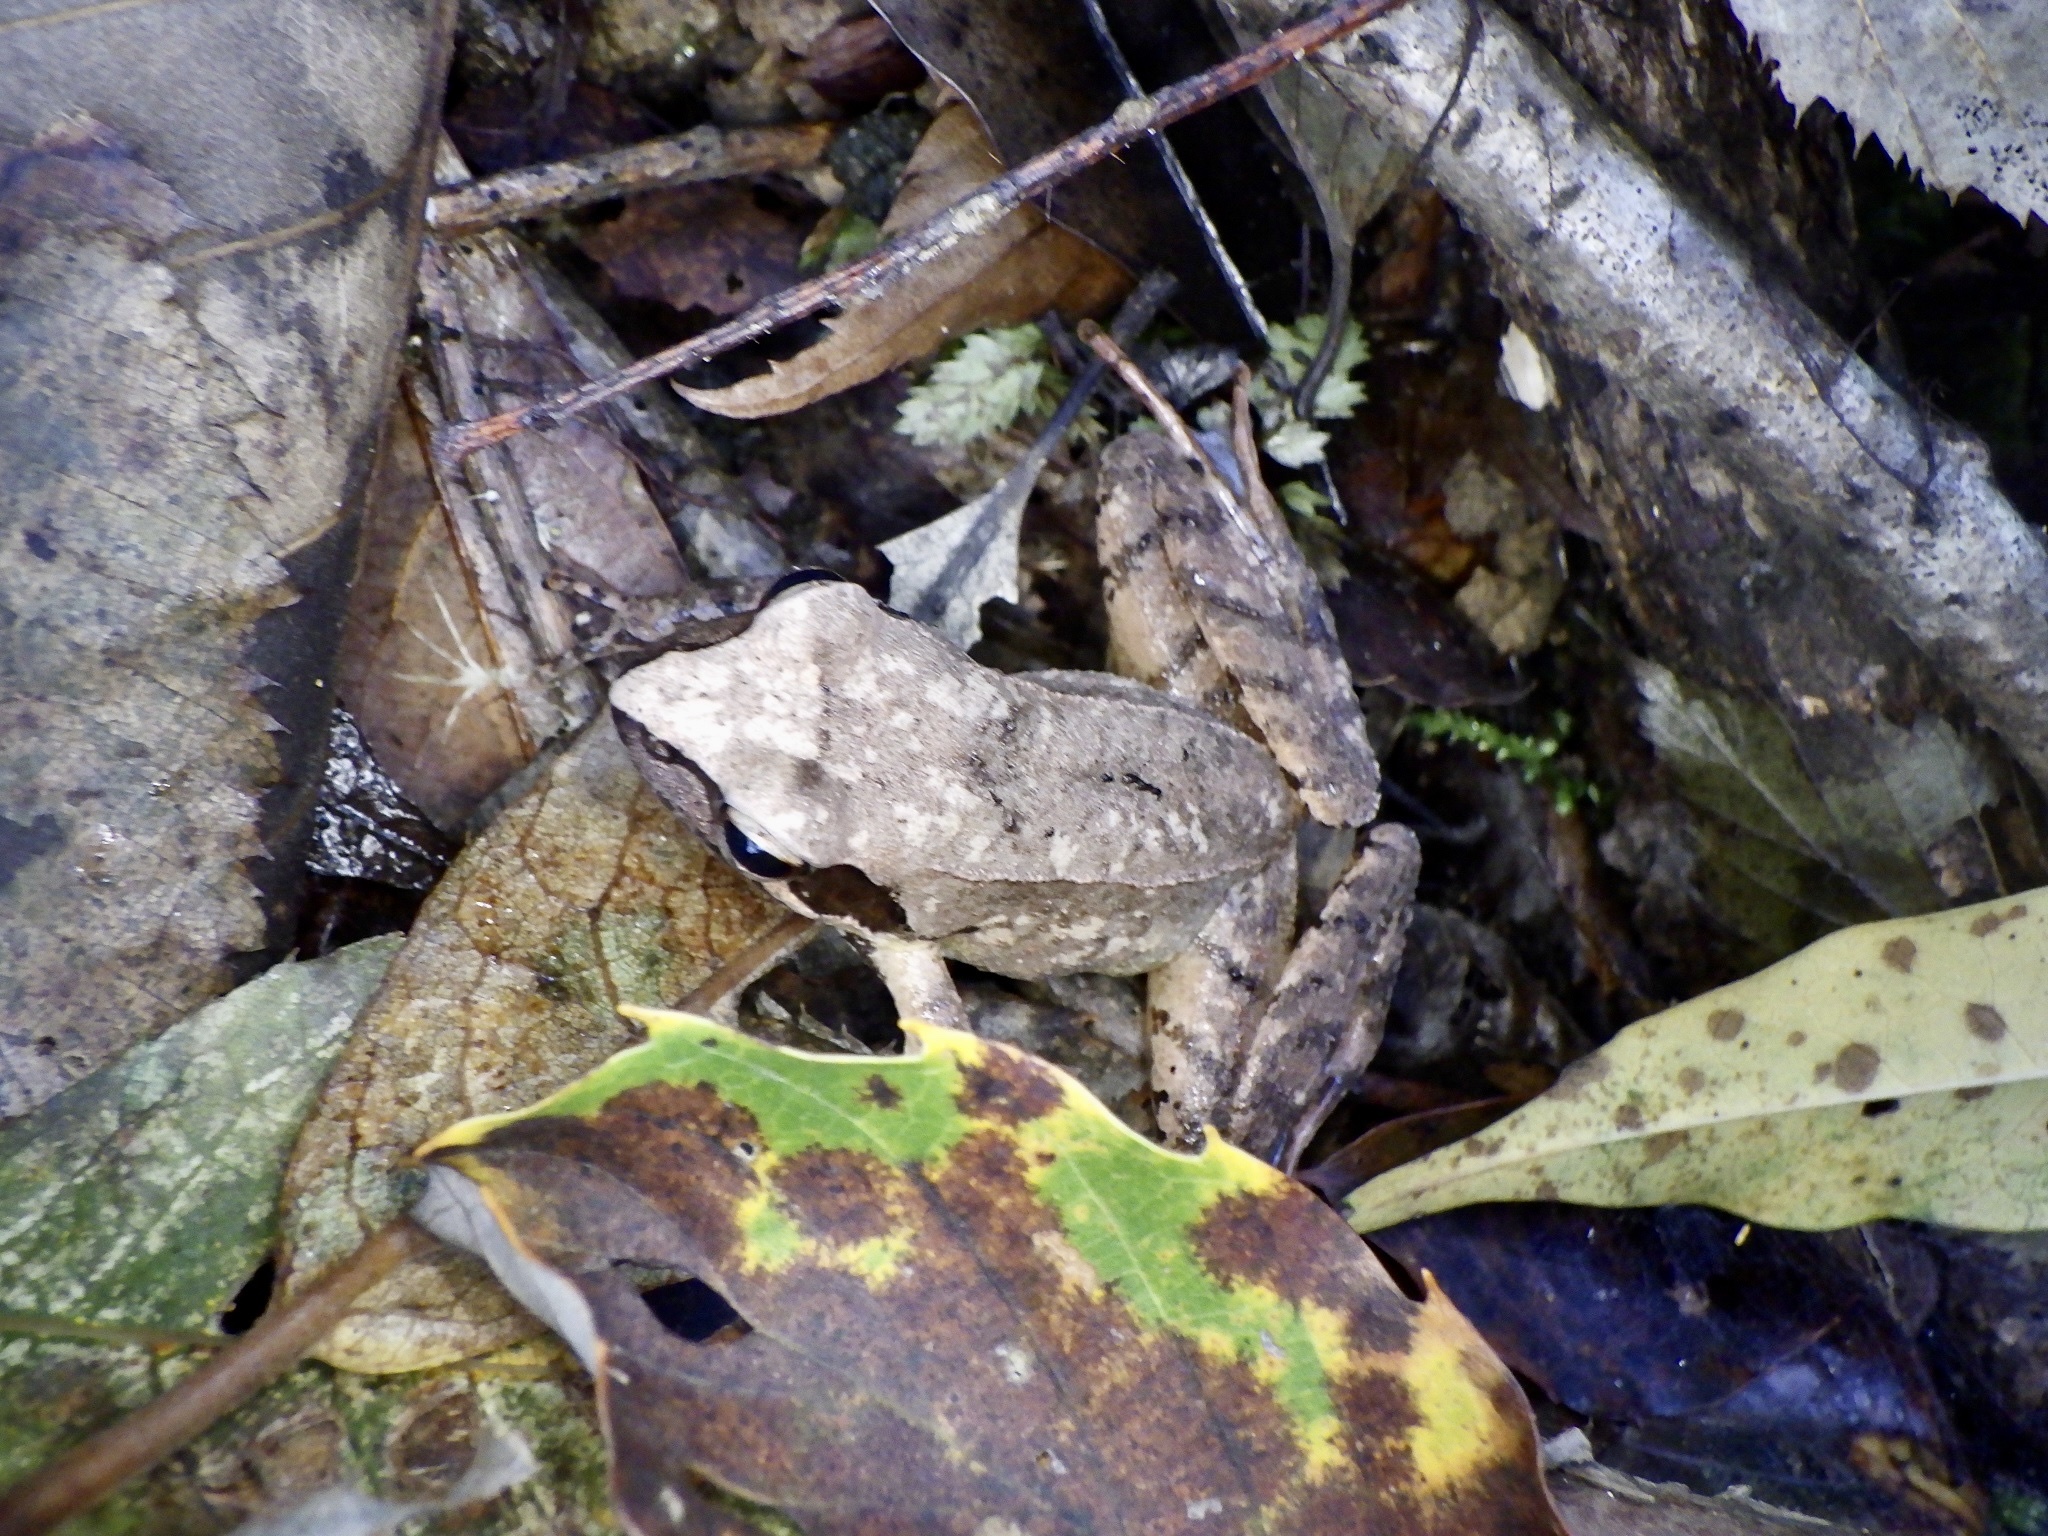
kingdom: Animalia
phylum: Chordata
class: Amphibia
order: Anura
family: Ranidae
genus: Rana
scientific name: Rana tagoi
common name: Tago's brown frog
